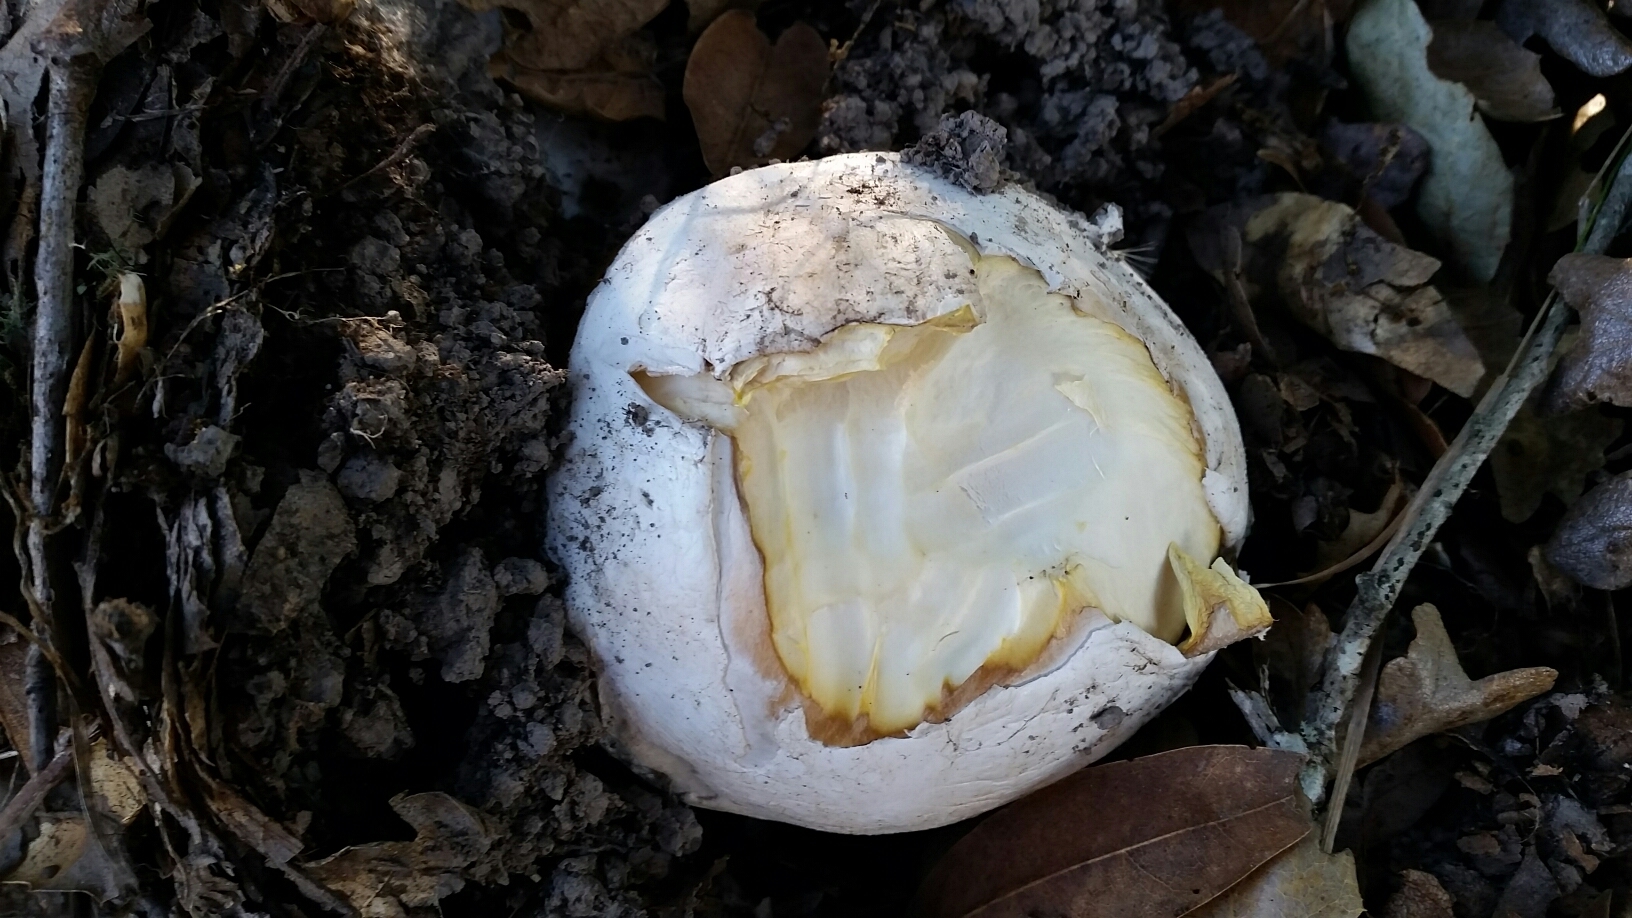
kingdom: Fungi
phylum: Basidiomycota
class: Agaricomycetes
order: Agaricales
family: Amanitaceae
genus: Amanita
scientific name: Amanita calyptroderma
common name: Coccora
